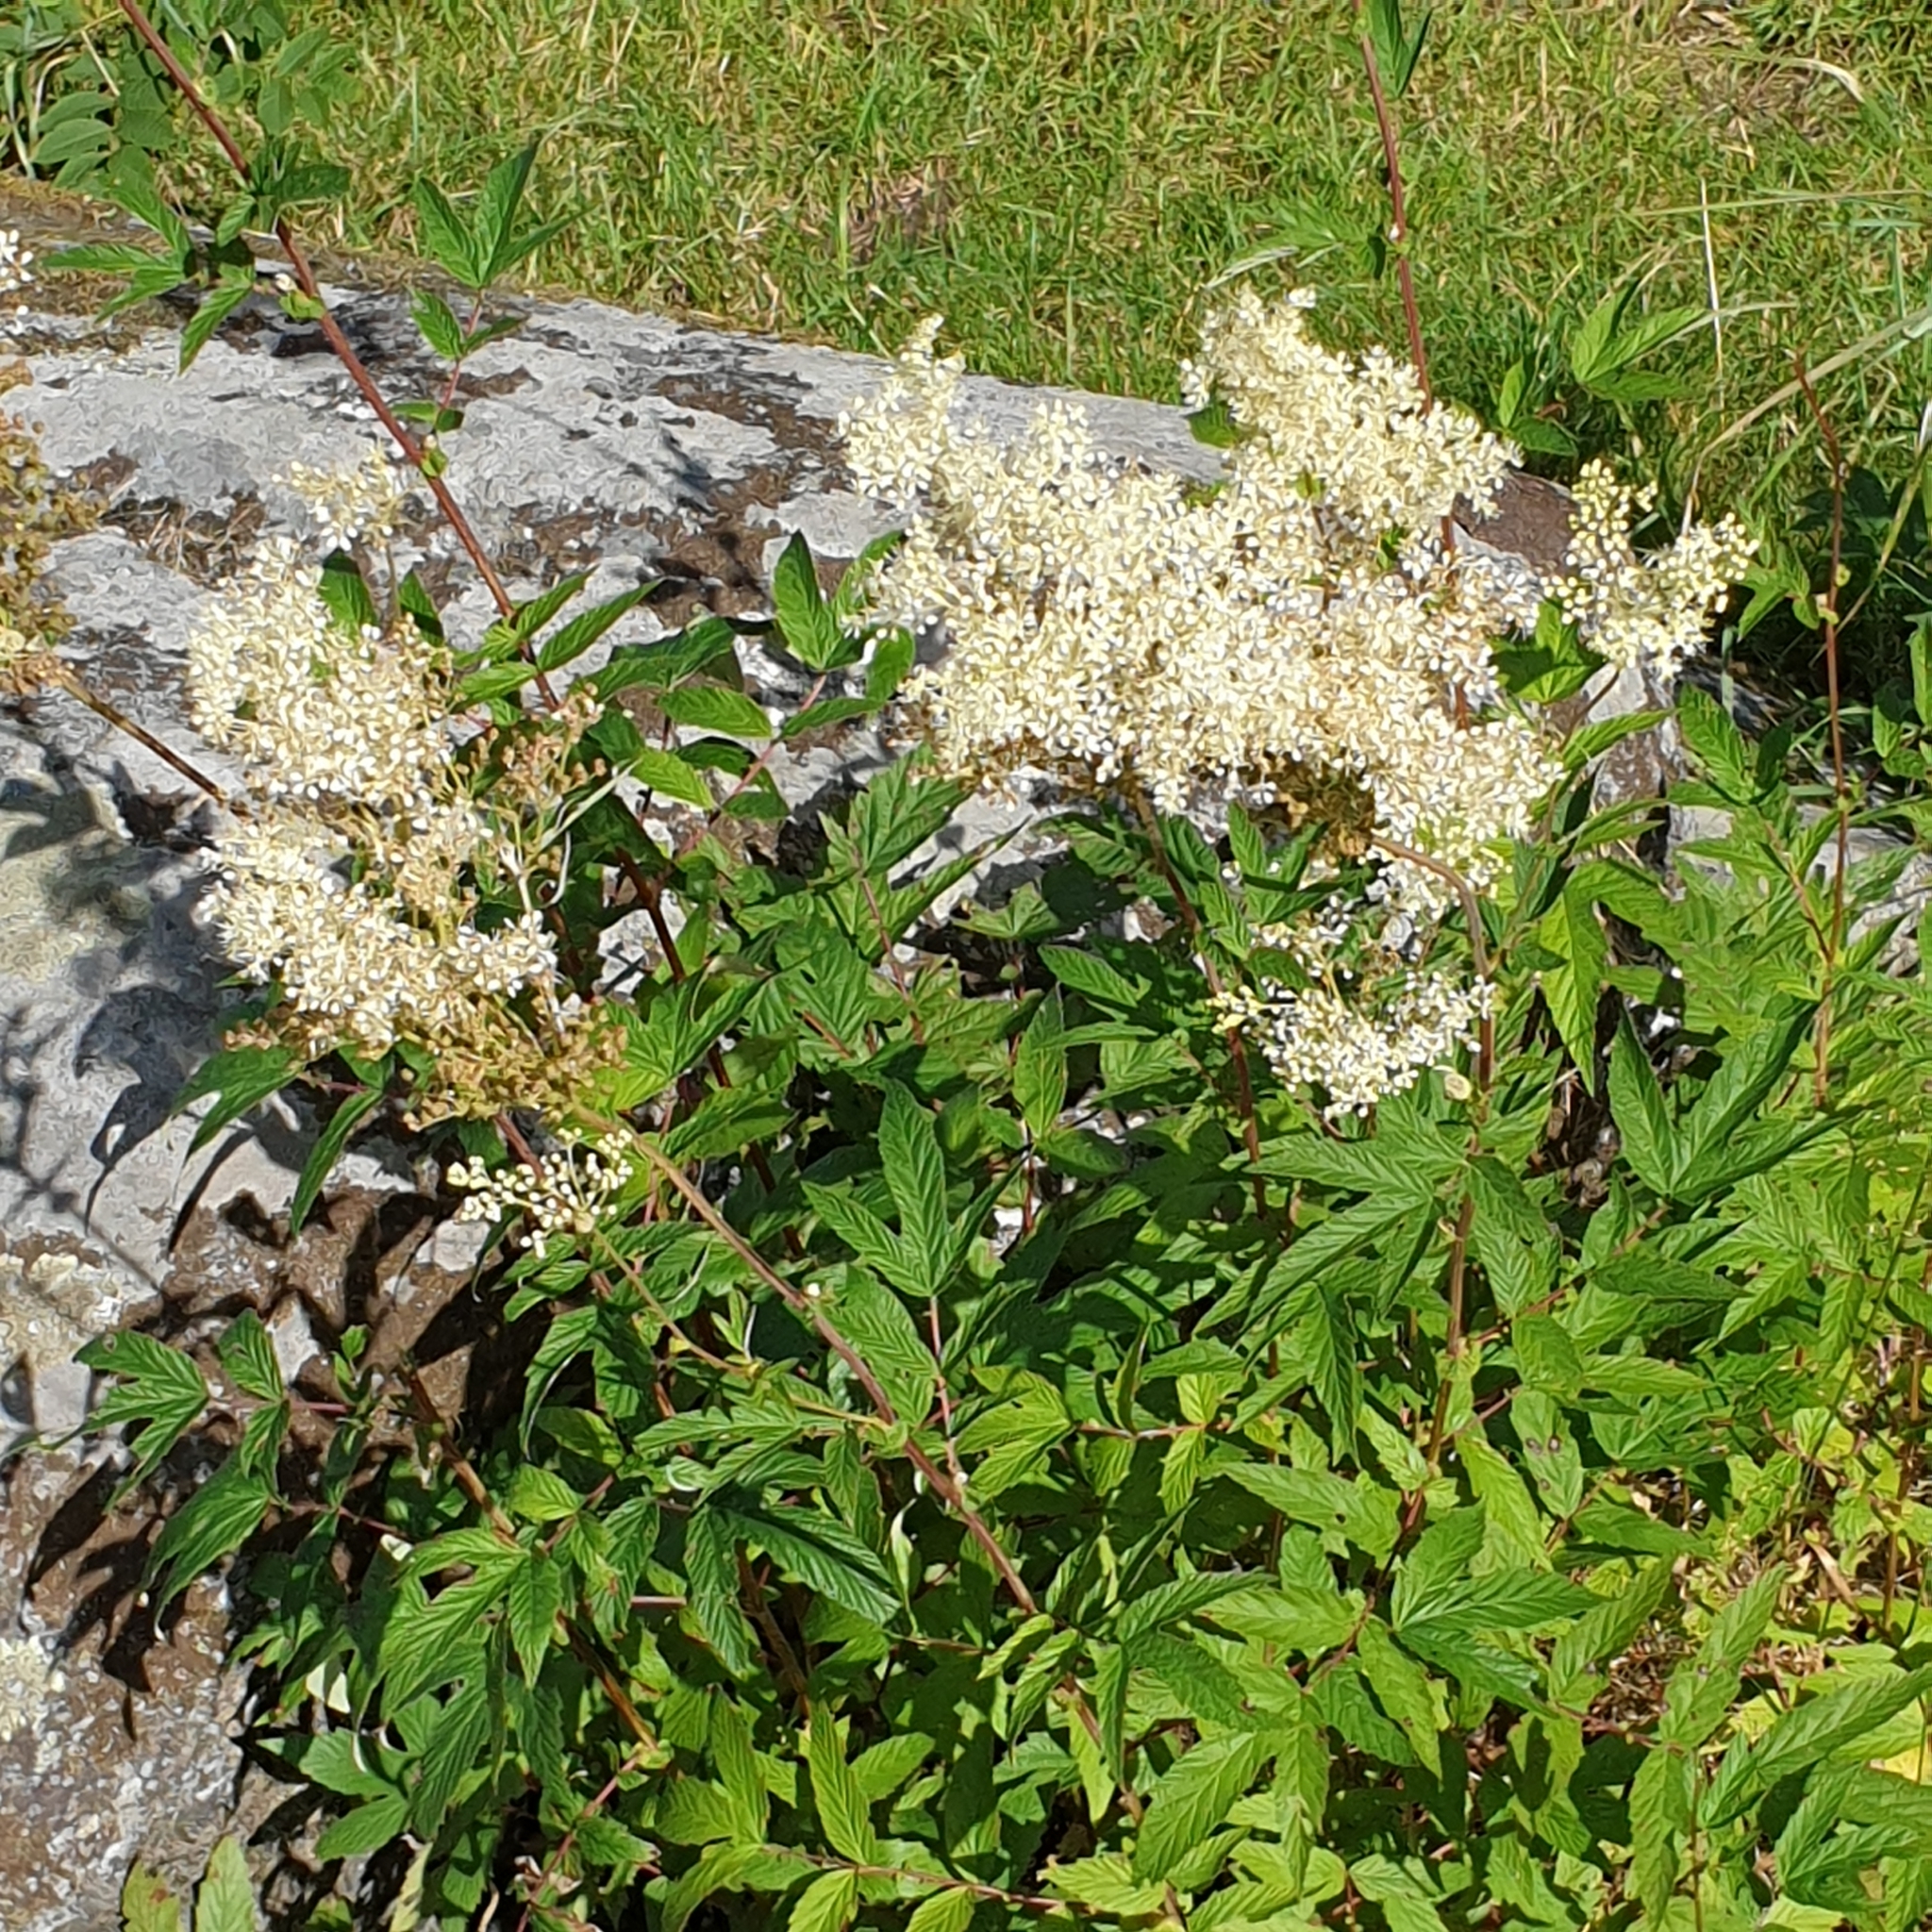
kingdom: Plantae
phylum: Tracheophyta
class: Magnoliopsida
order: Rosales
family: Rosaceae
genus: Filipendula
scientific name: Filipendula ulmaria
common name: Meadowsweet
